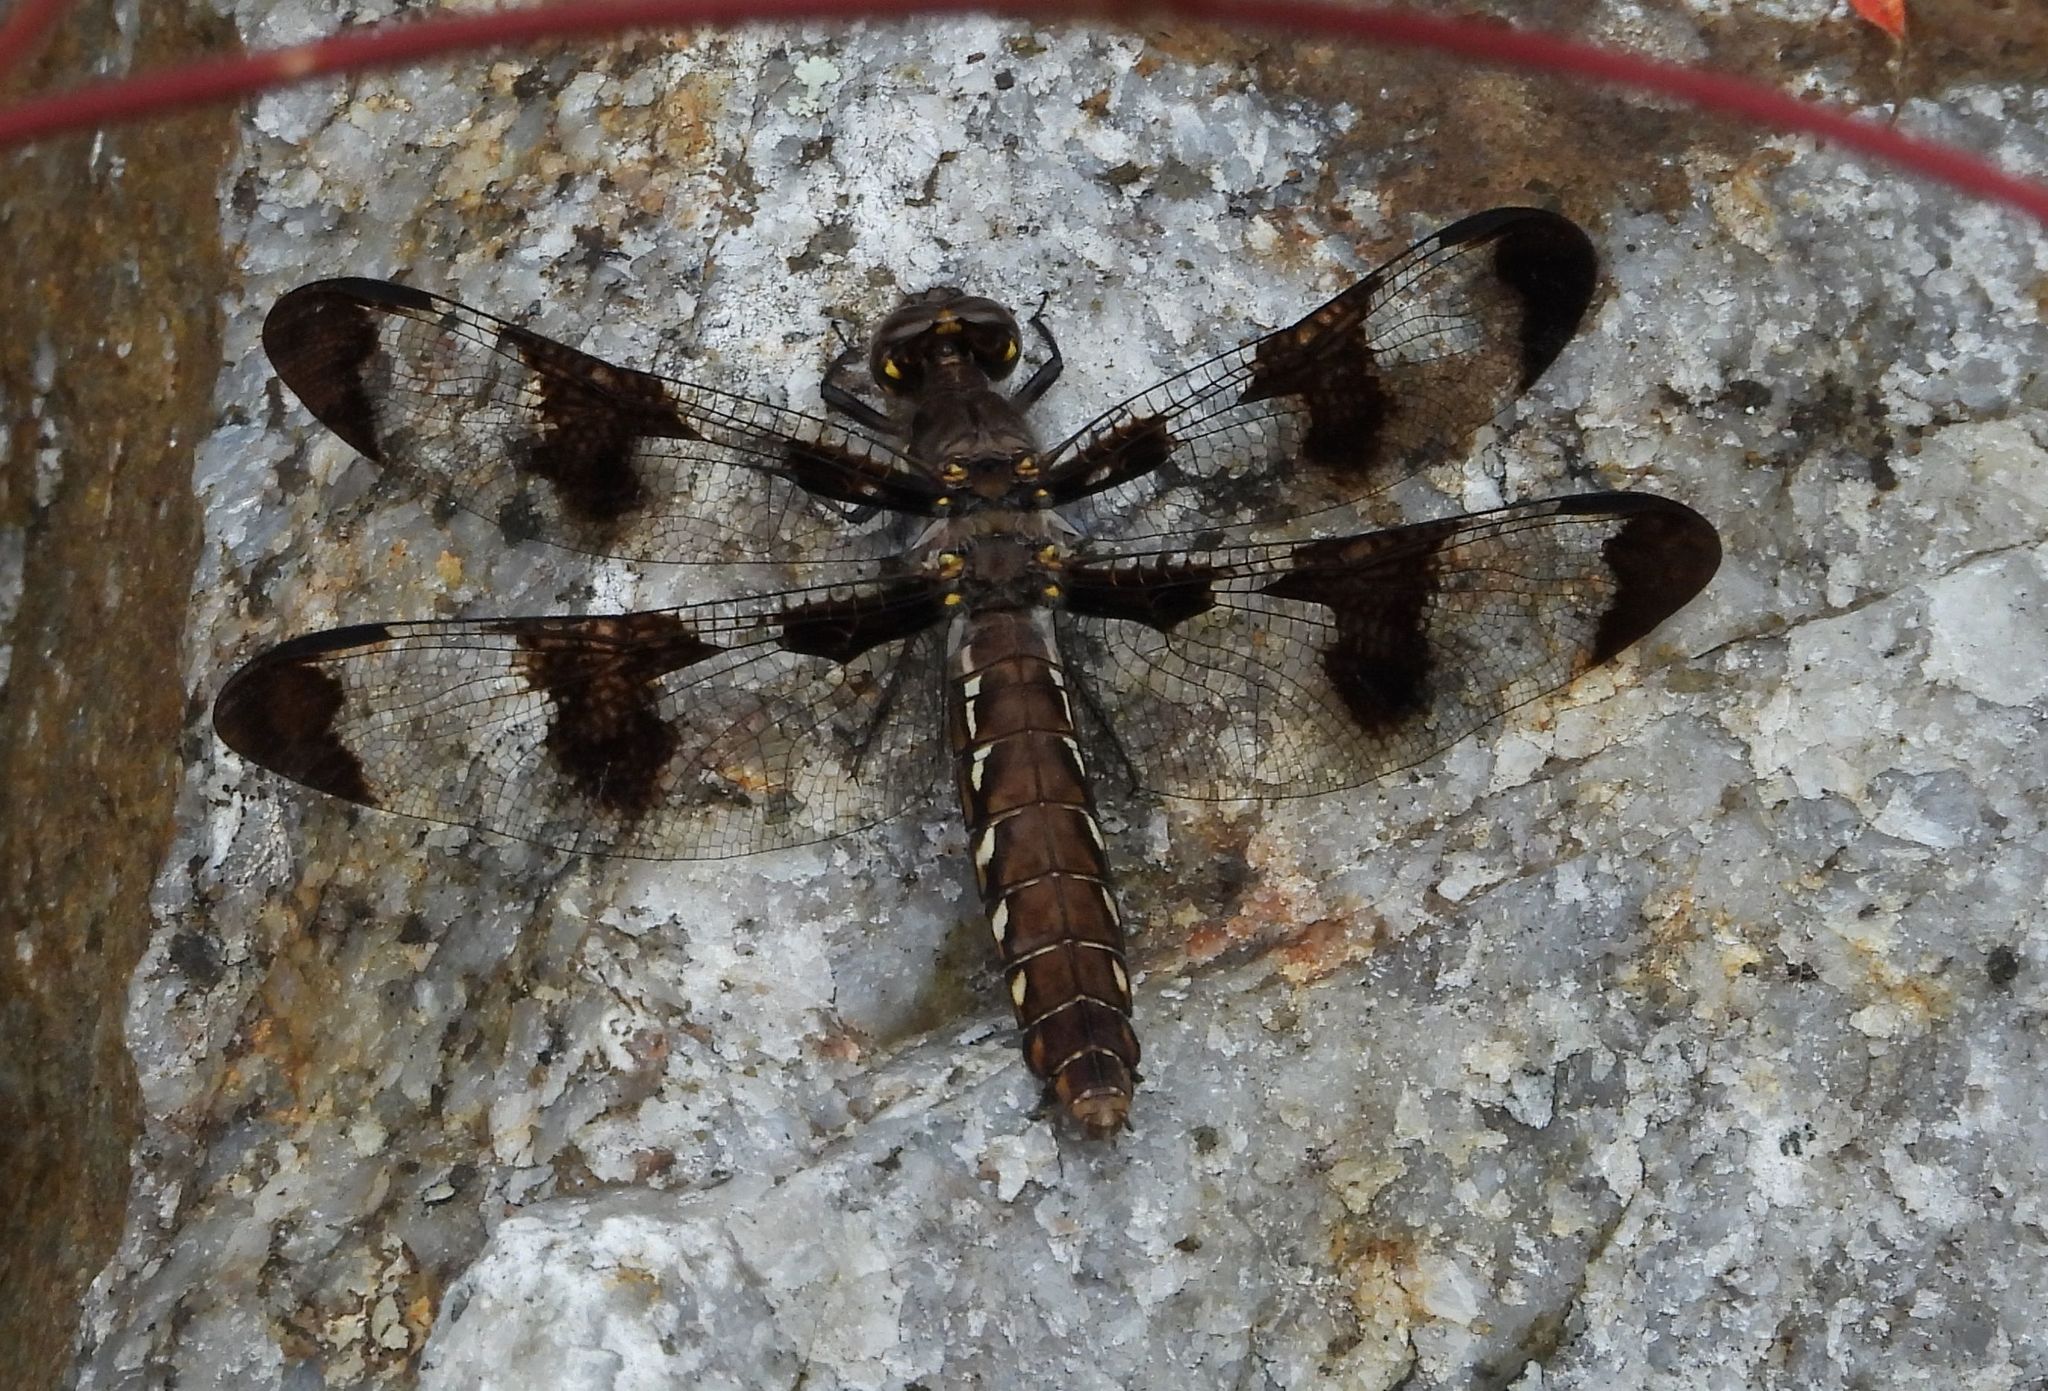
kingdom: Animalia
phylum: Arthropoda
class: Insecta
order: Odonata
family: Libellulidae
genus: Plathemis
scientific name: Plathemis lydia
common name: Common whitetail
